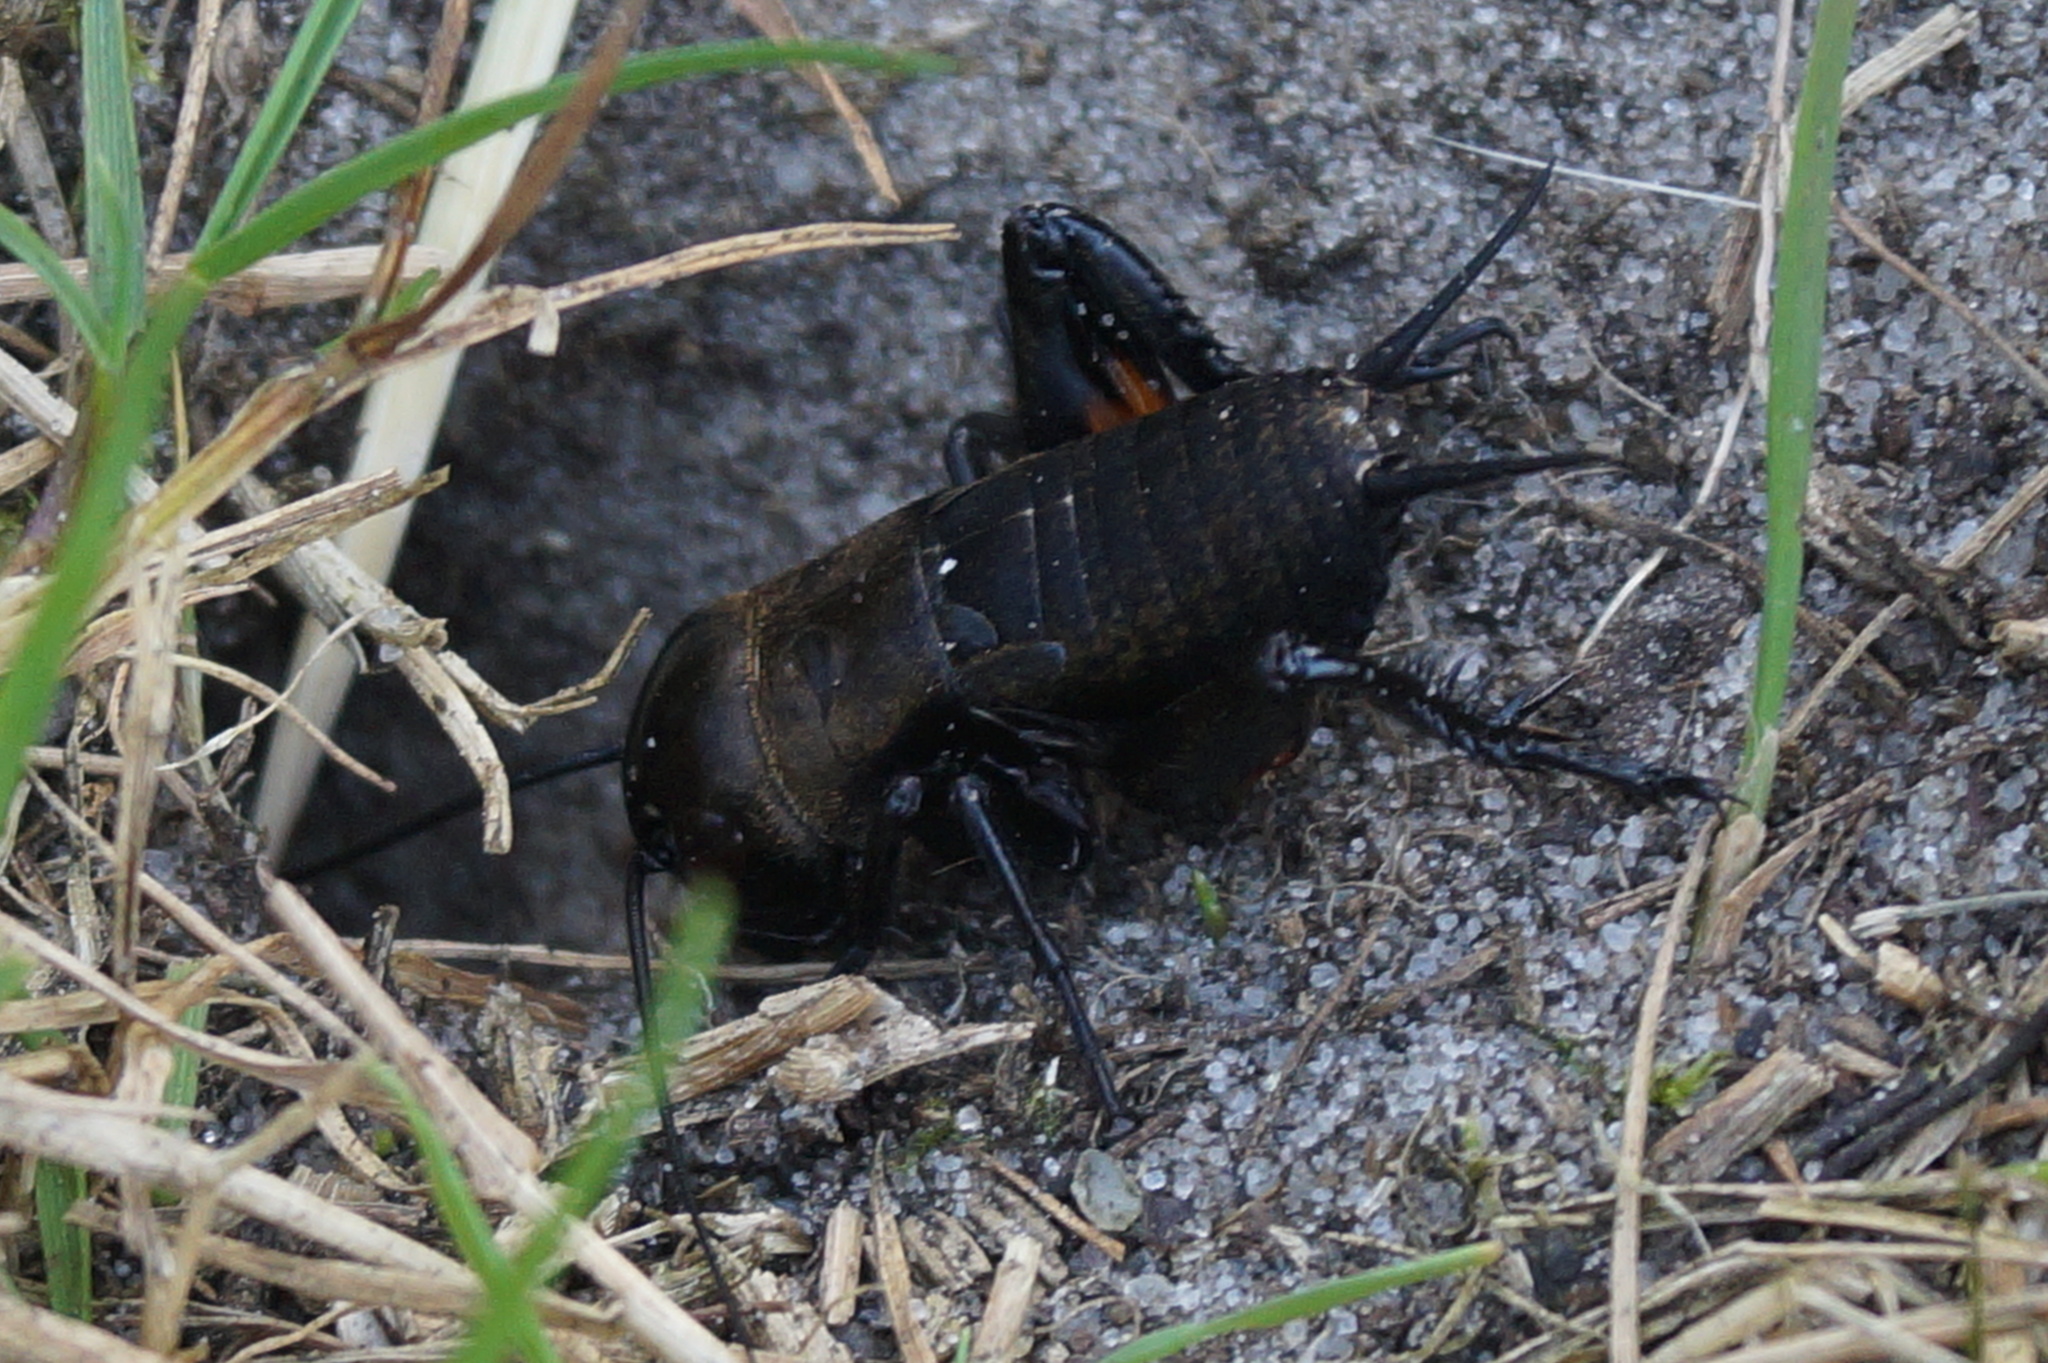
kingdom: Animalia
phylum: Arthropoda
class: Insecta
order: Orthoptera
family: Gryllidae
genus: Gryllus
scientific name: Gryllus campestris
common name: Field cricket
